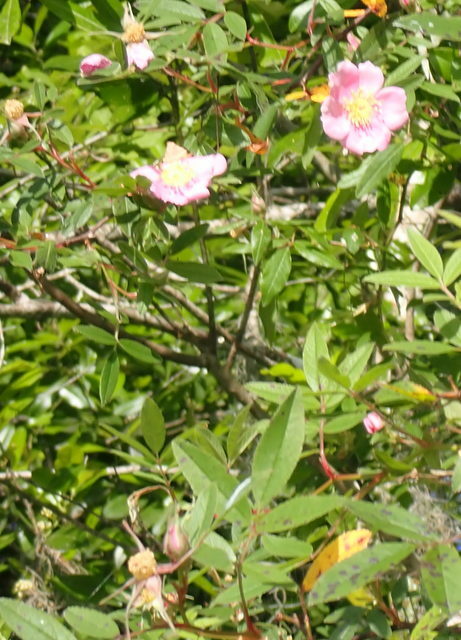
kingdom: Plantae
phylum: Tracheophyta
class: Magnoliopsida
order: Rosales
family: Rosaceae
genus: Rosa
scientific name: Rosa palustris
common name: Swamp rose
